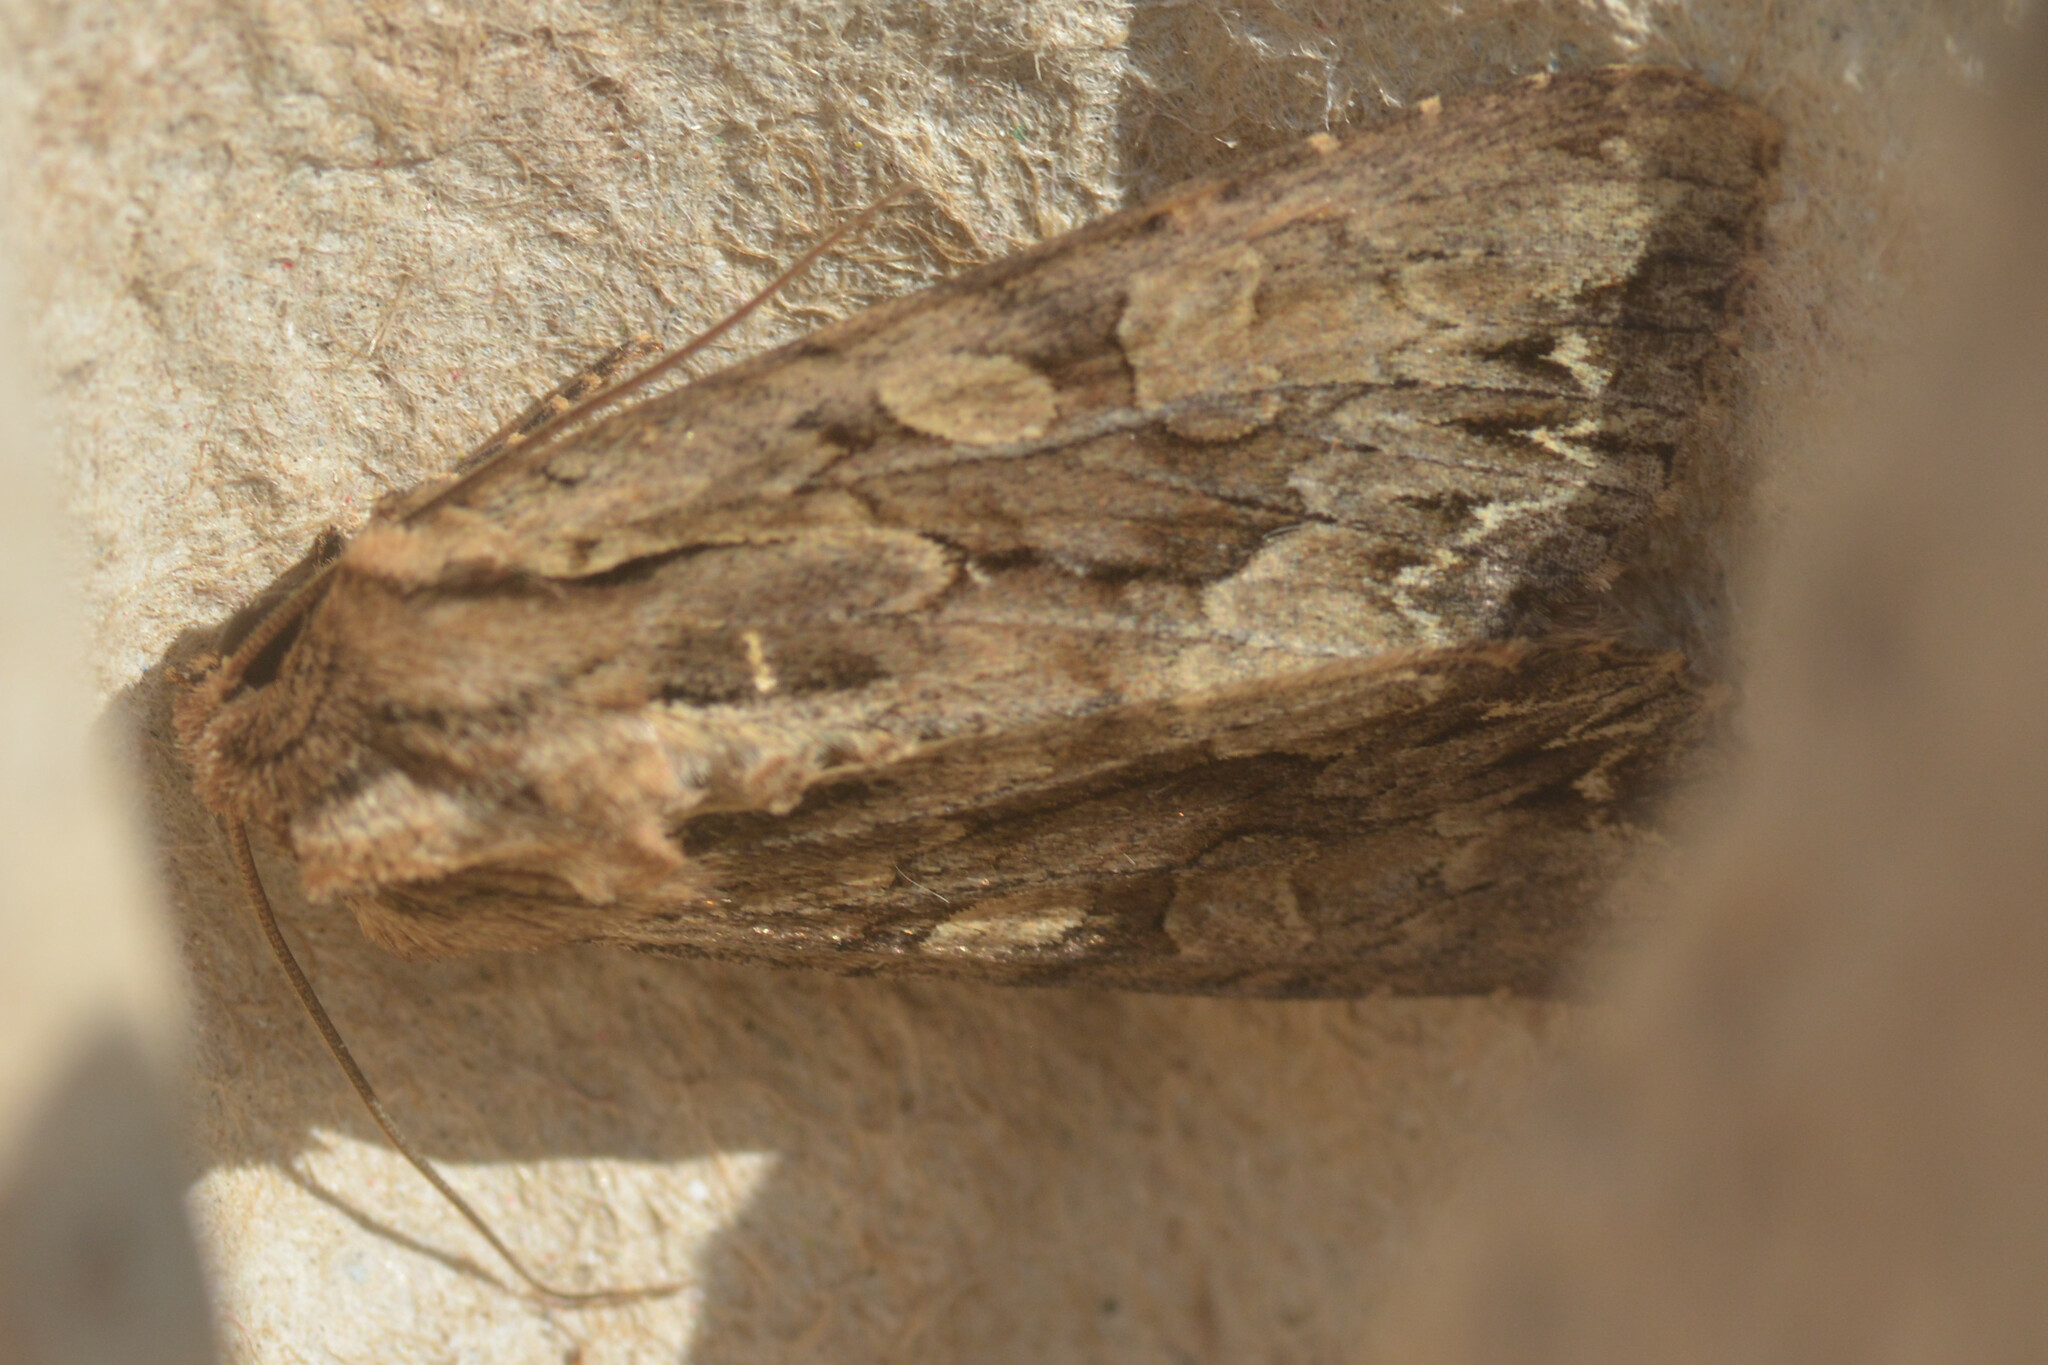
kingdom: Animalia
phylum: Arthropoda
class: Insecta
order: Lepidoptera
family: Noctuidae
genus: Apamea
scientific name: Apamea monoglypha
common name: Dark arches
